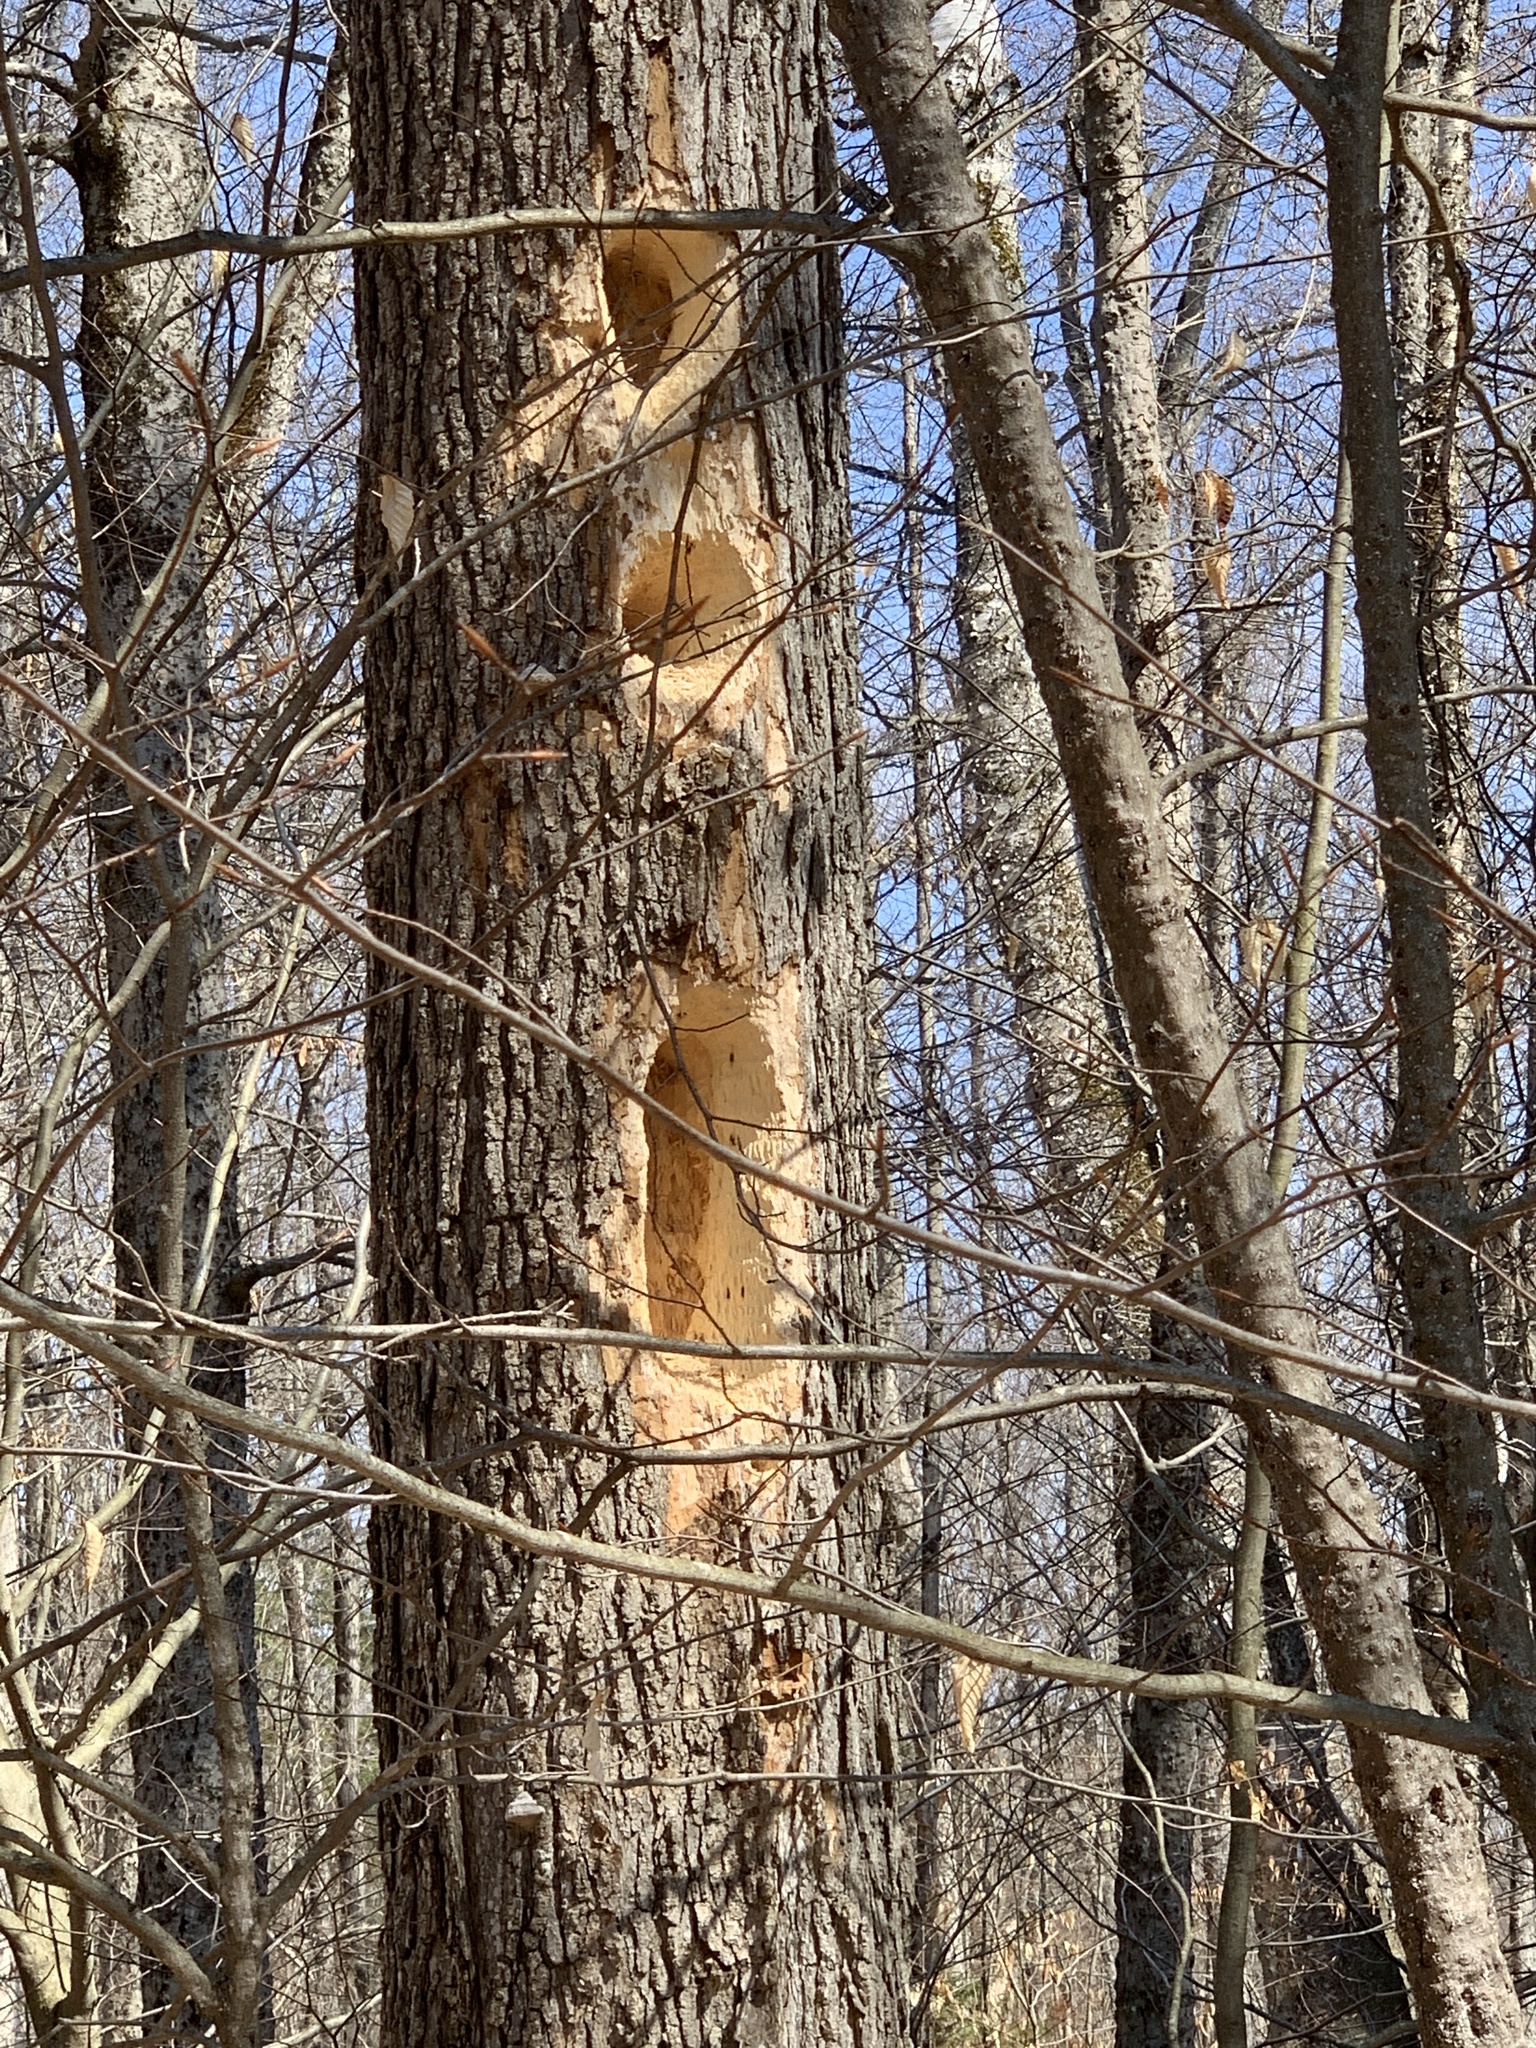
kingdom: Animalia
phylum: Chordata
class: Aves
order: Piciformes
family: Picidae
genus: Dryocopus
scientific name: Dryocopus pileatus
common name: Pileated woodpecker
